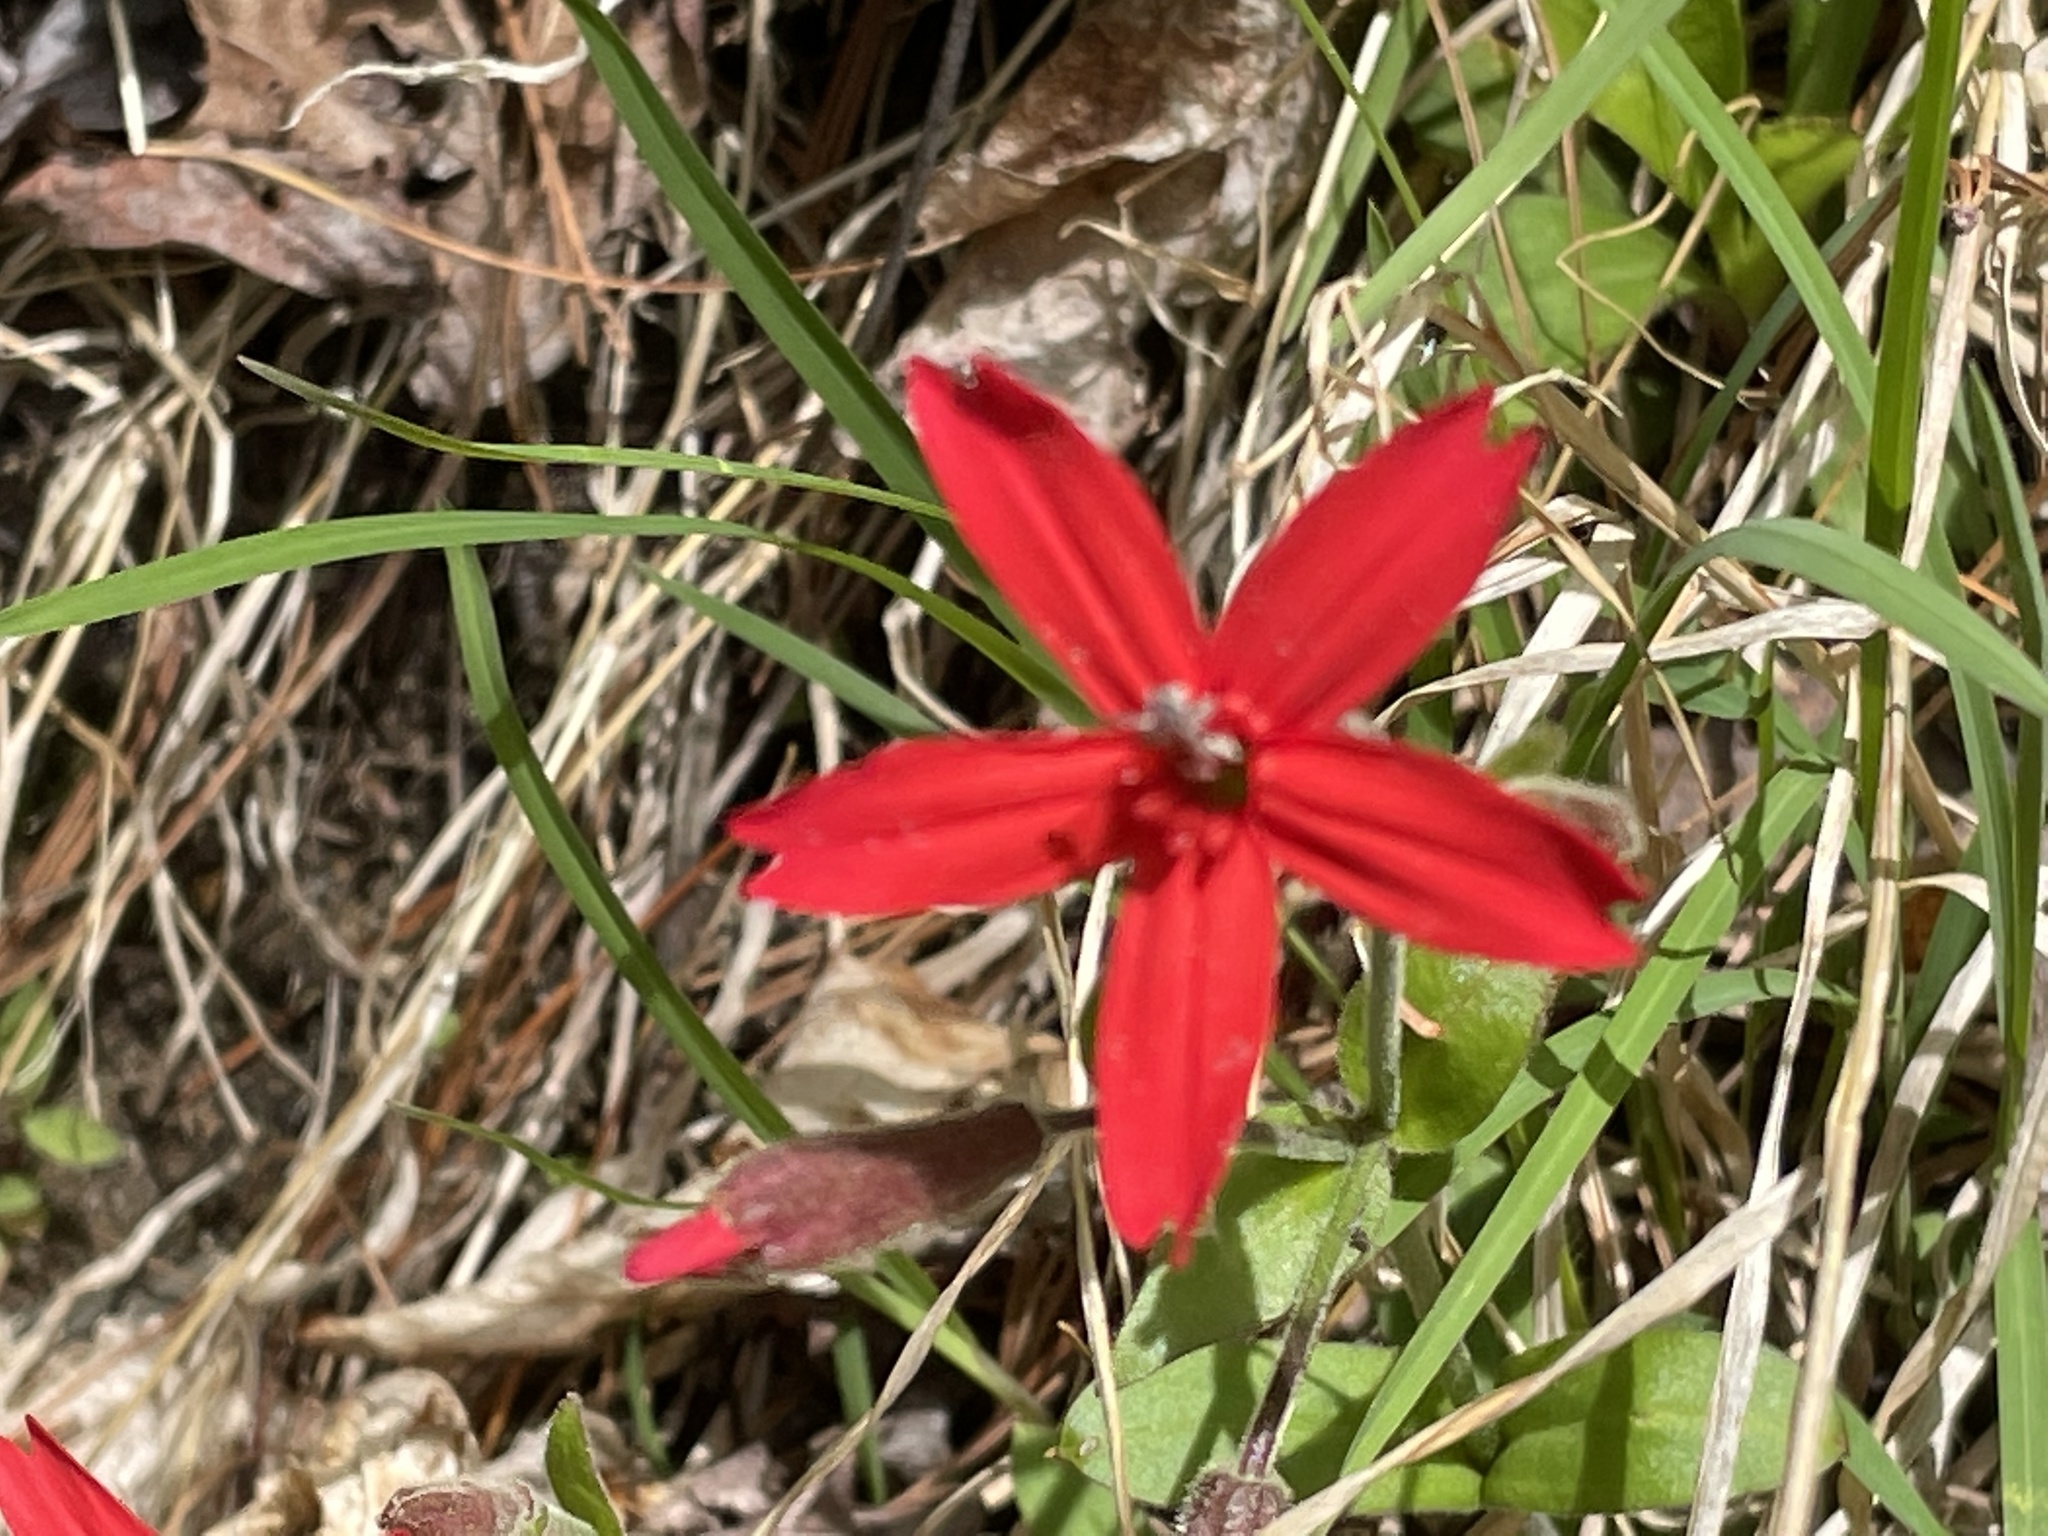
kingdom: Plantae
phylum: Tracheophyta
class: Magnoliopsida
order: Caryophyllales
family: Caryophyllaceae
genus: Silene
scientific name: Silene virginica
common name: Fire-pink
